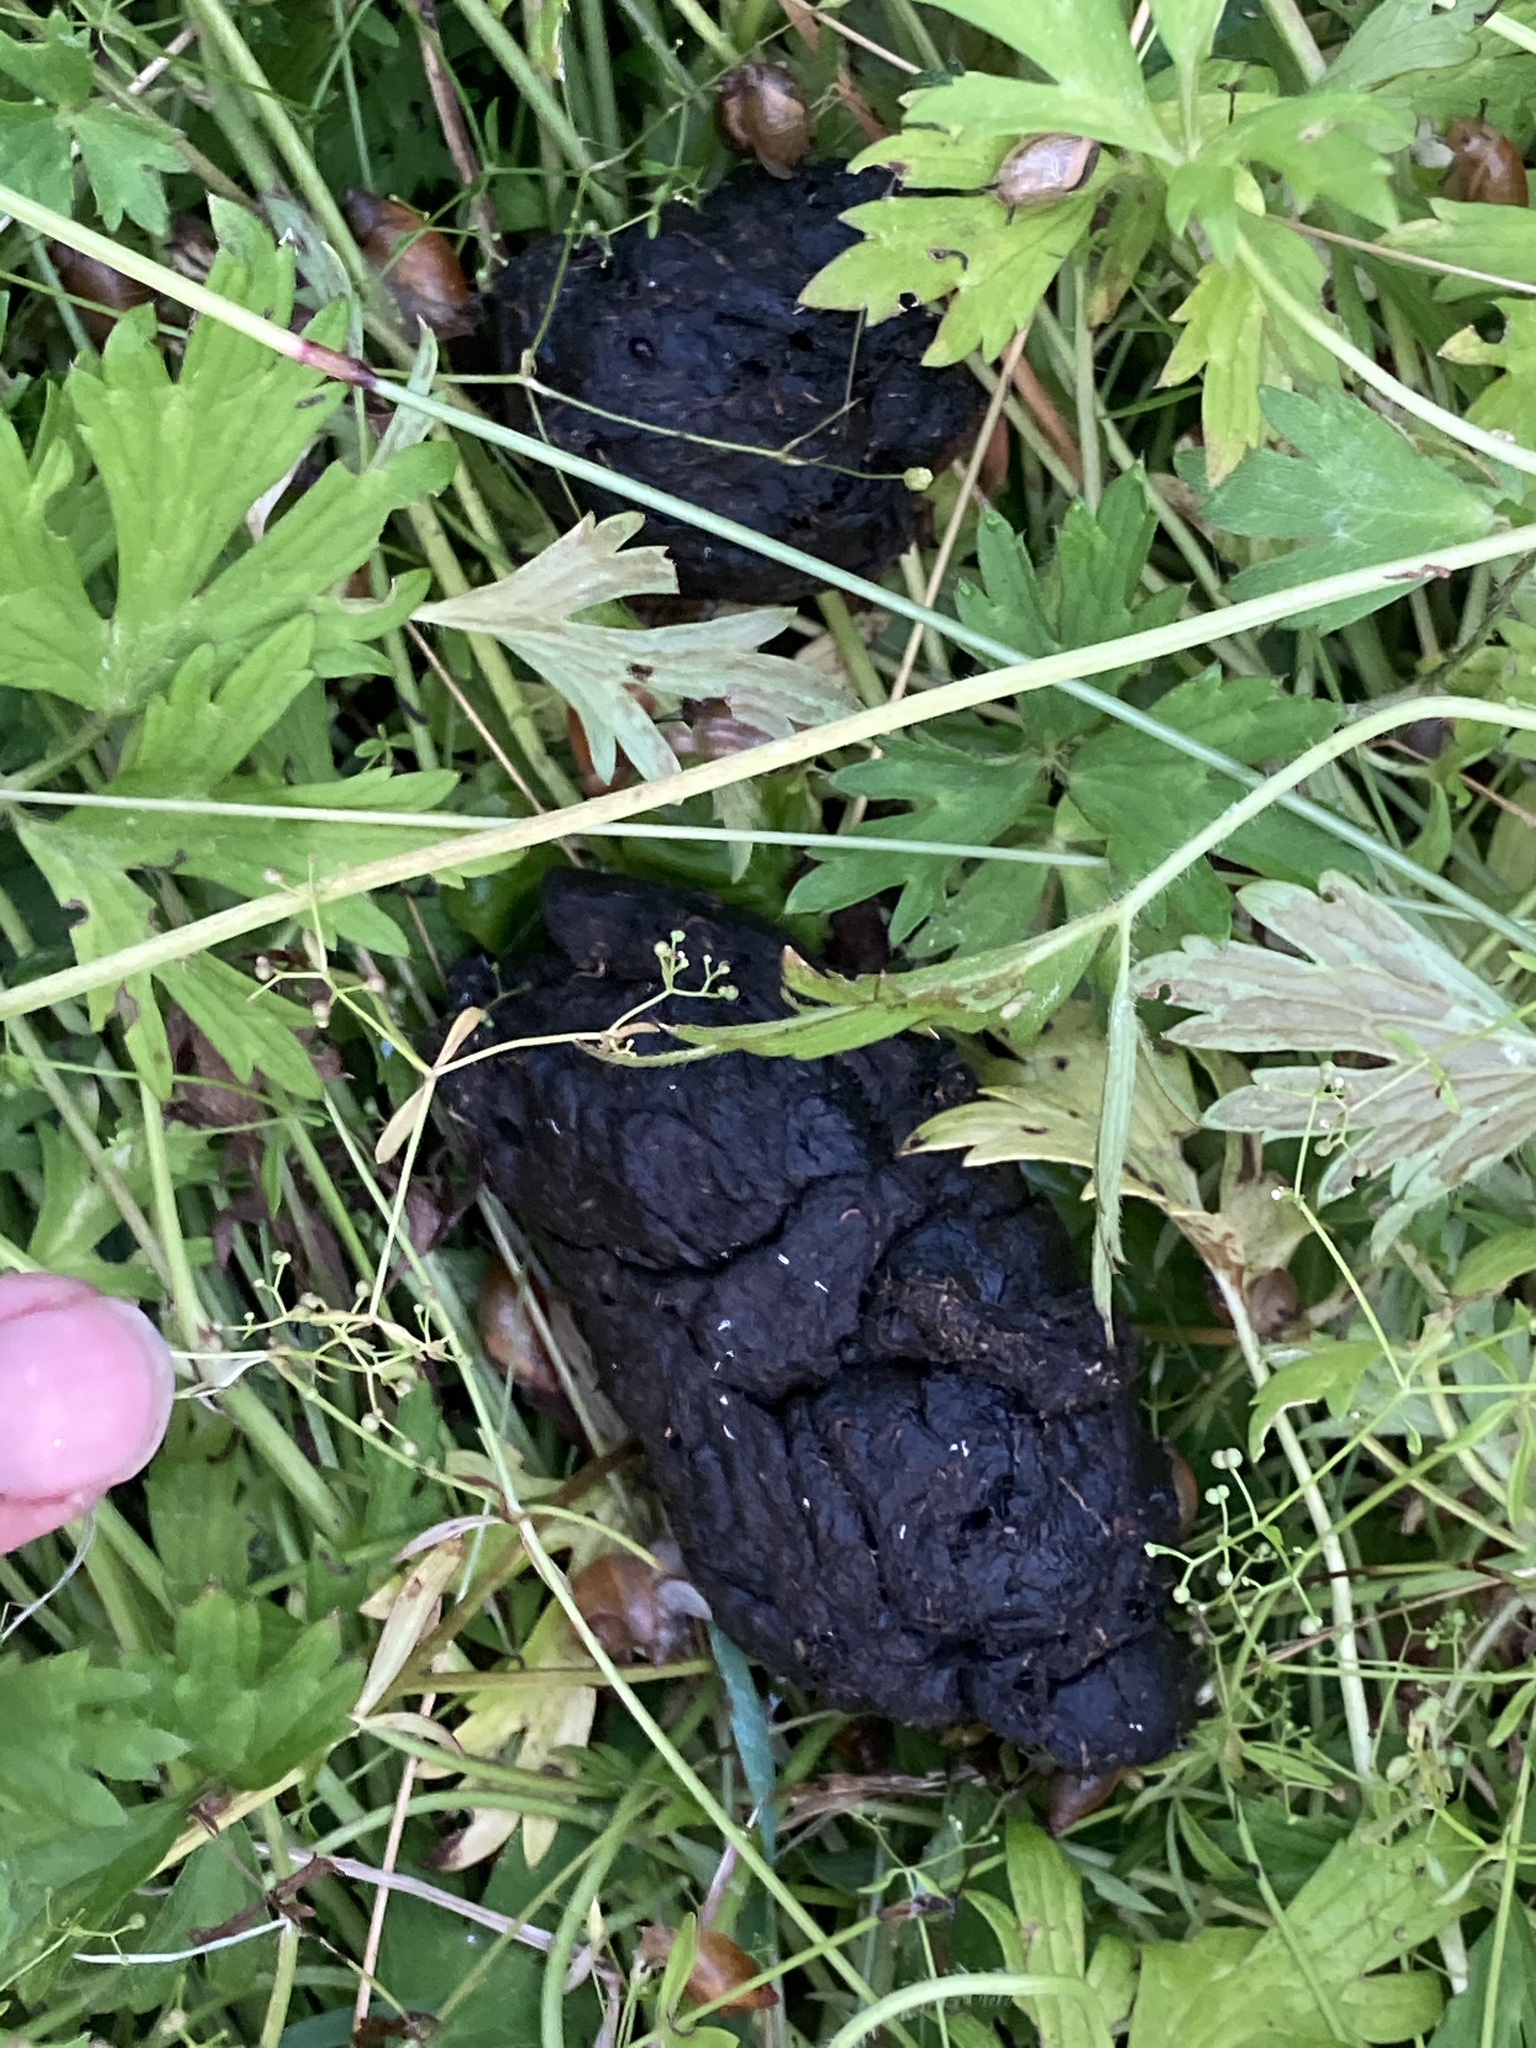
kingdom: Animalia
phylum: Chordata
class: Mammalia
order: Carnivora
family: Ursidae
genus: Ursus
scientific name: Ursus americanus
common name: American black bear
